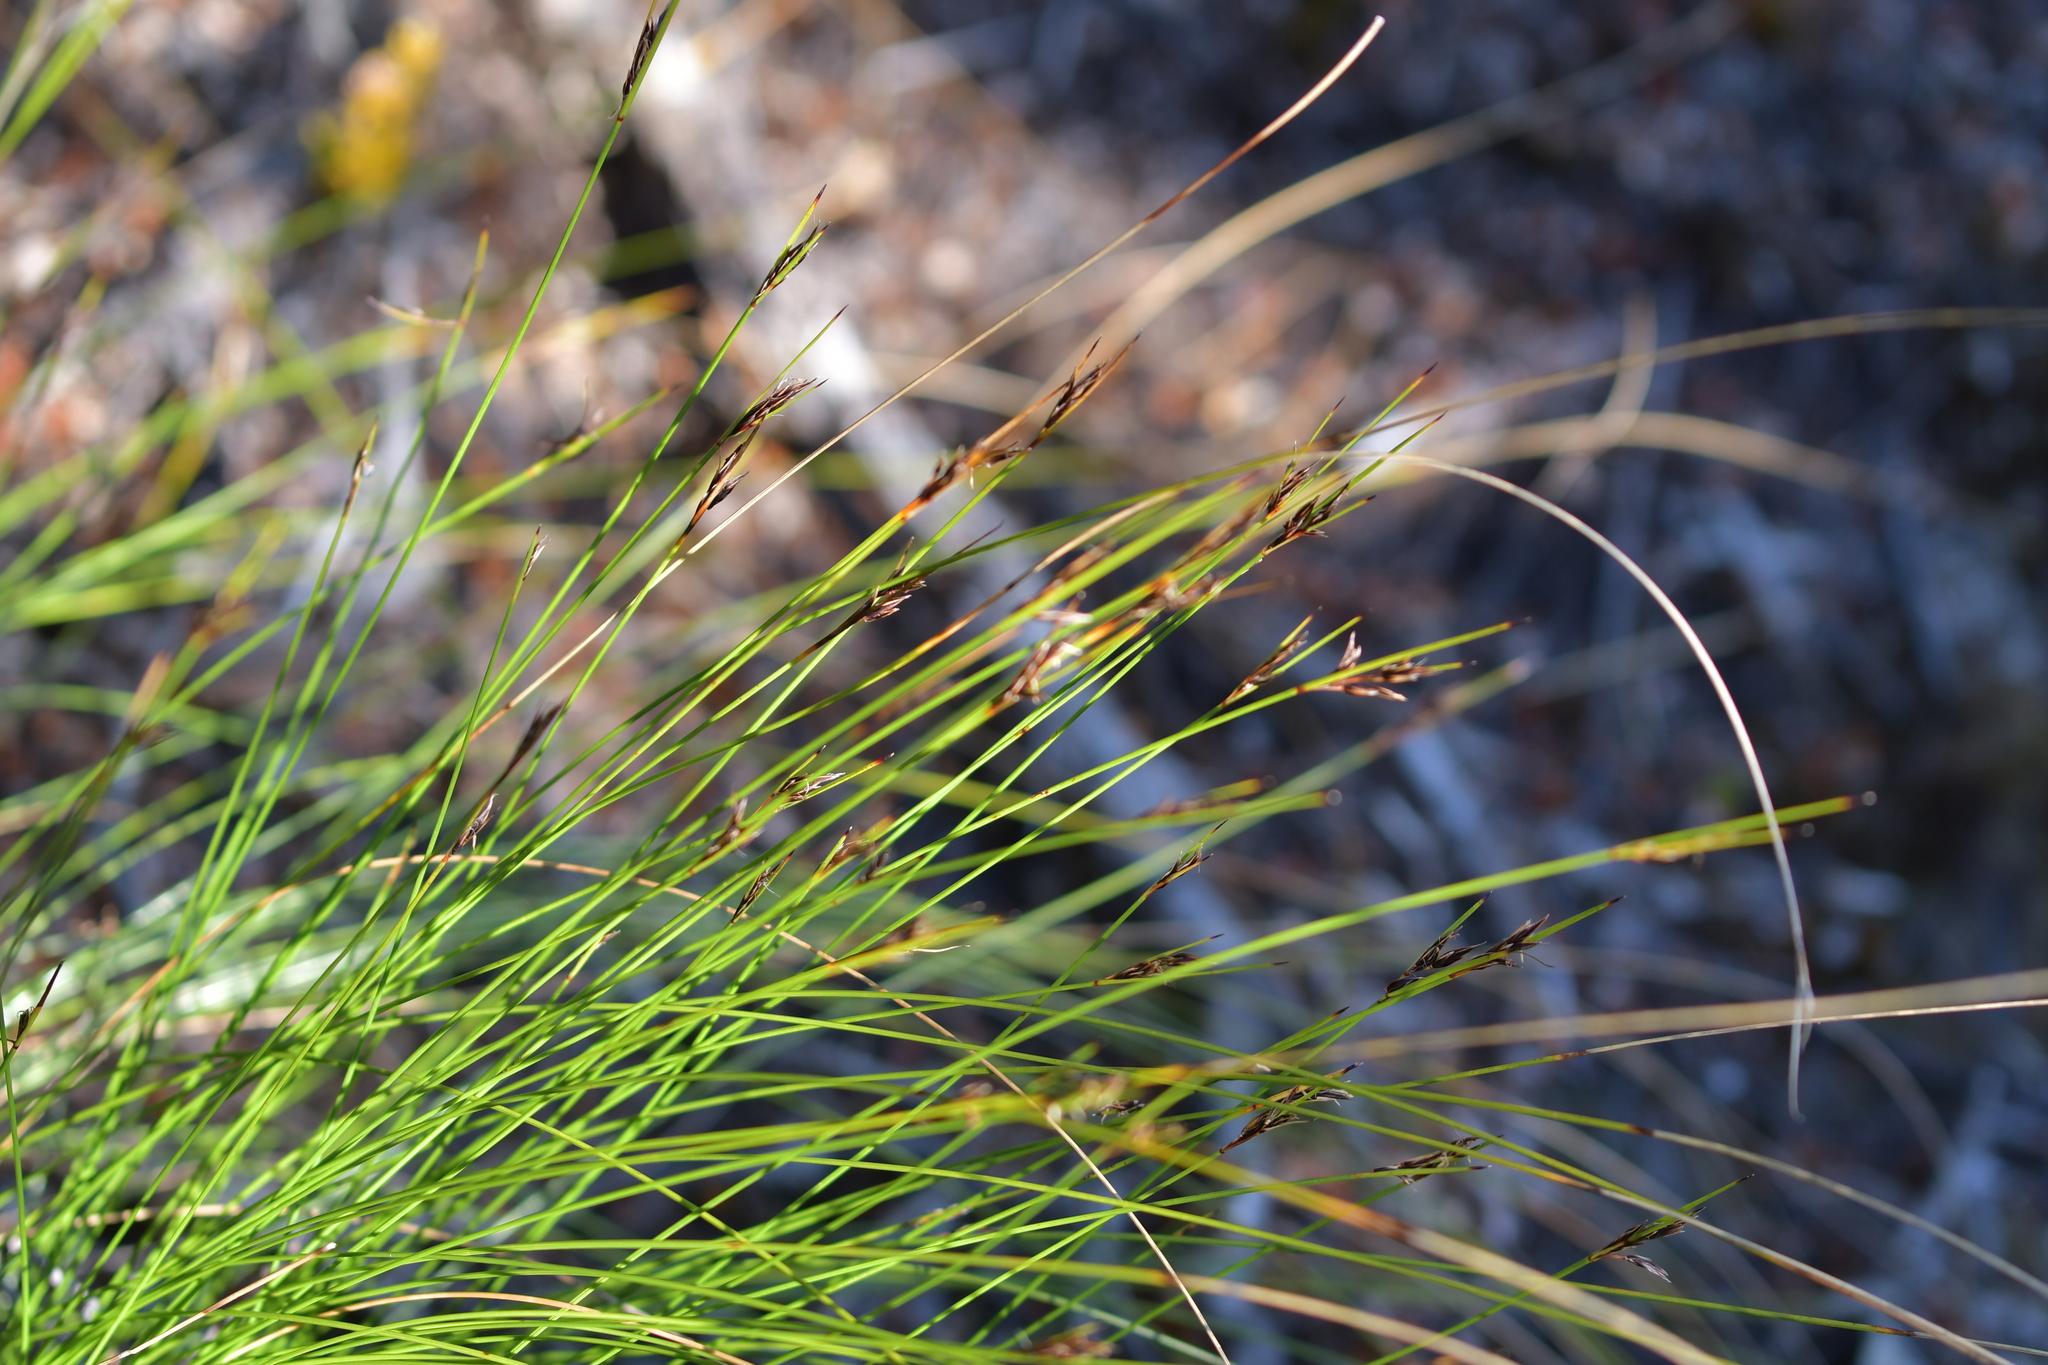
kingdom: Plantae
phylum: Tracheophyta
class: Liliopsida
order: Poales
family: Cyperaceae
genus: Schoenus
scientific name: Schoenus pauciflorus
